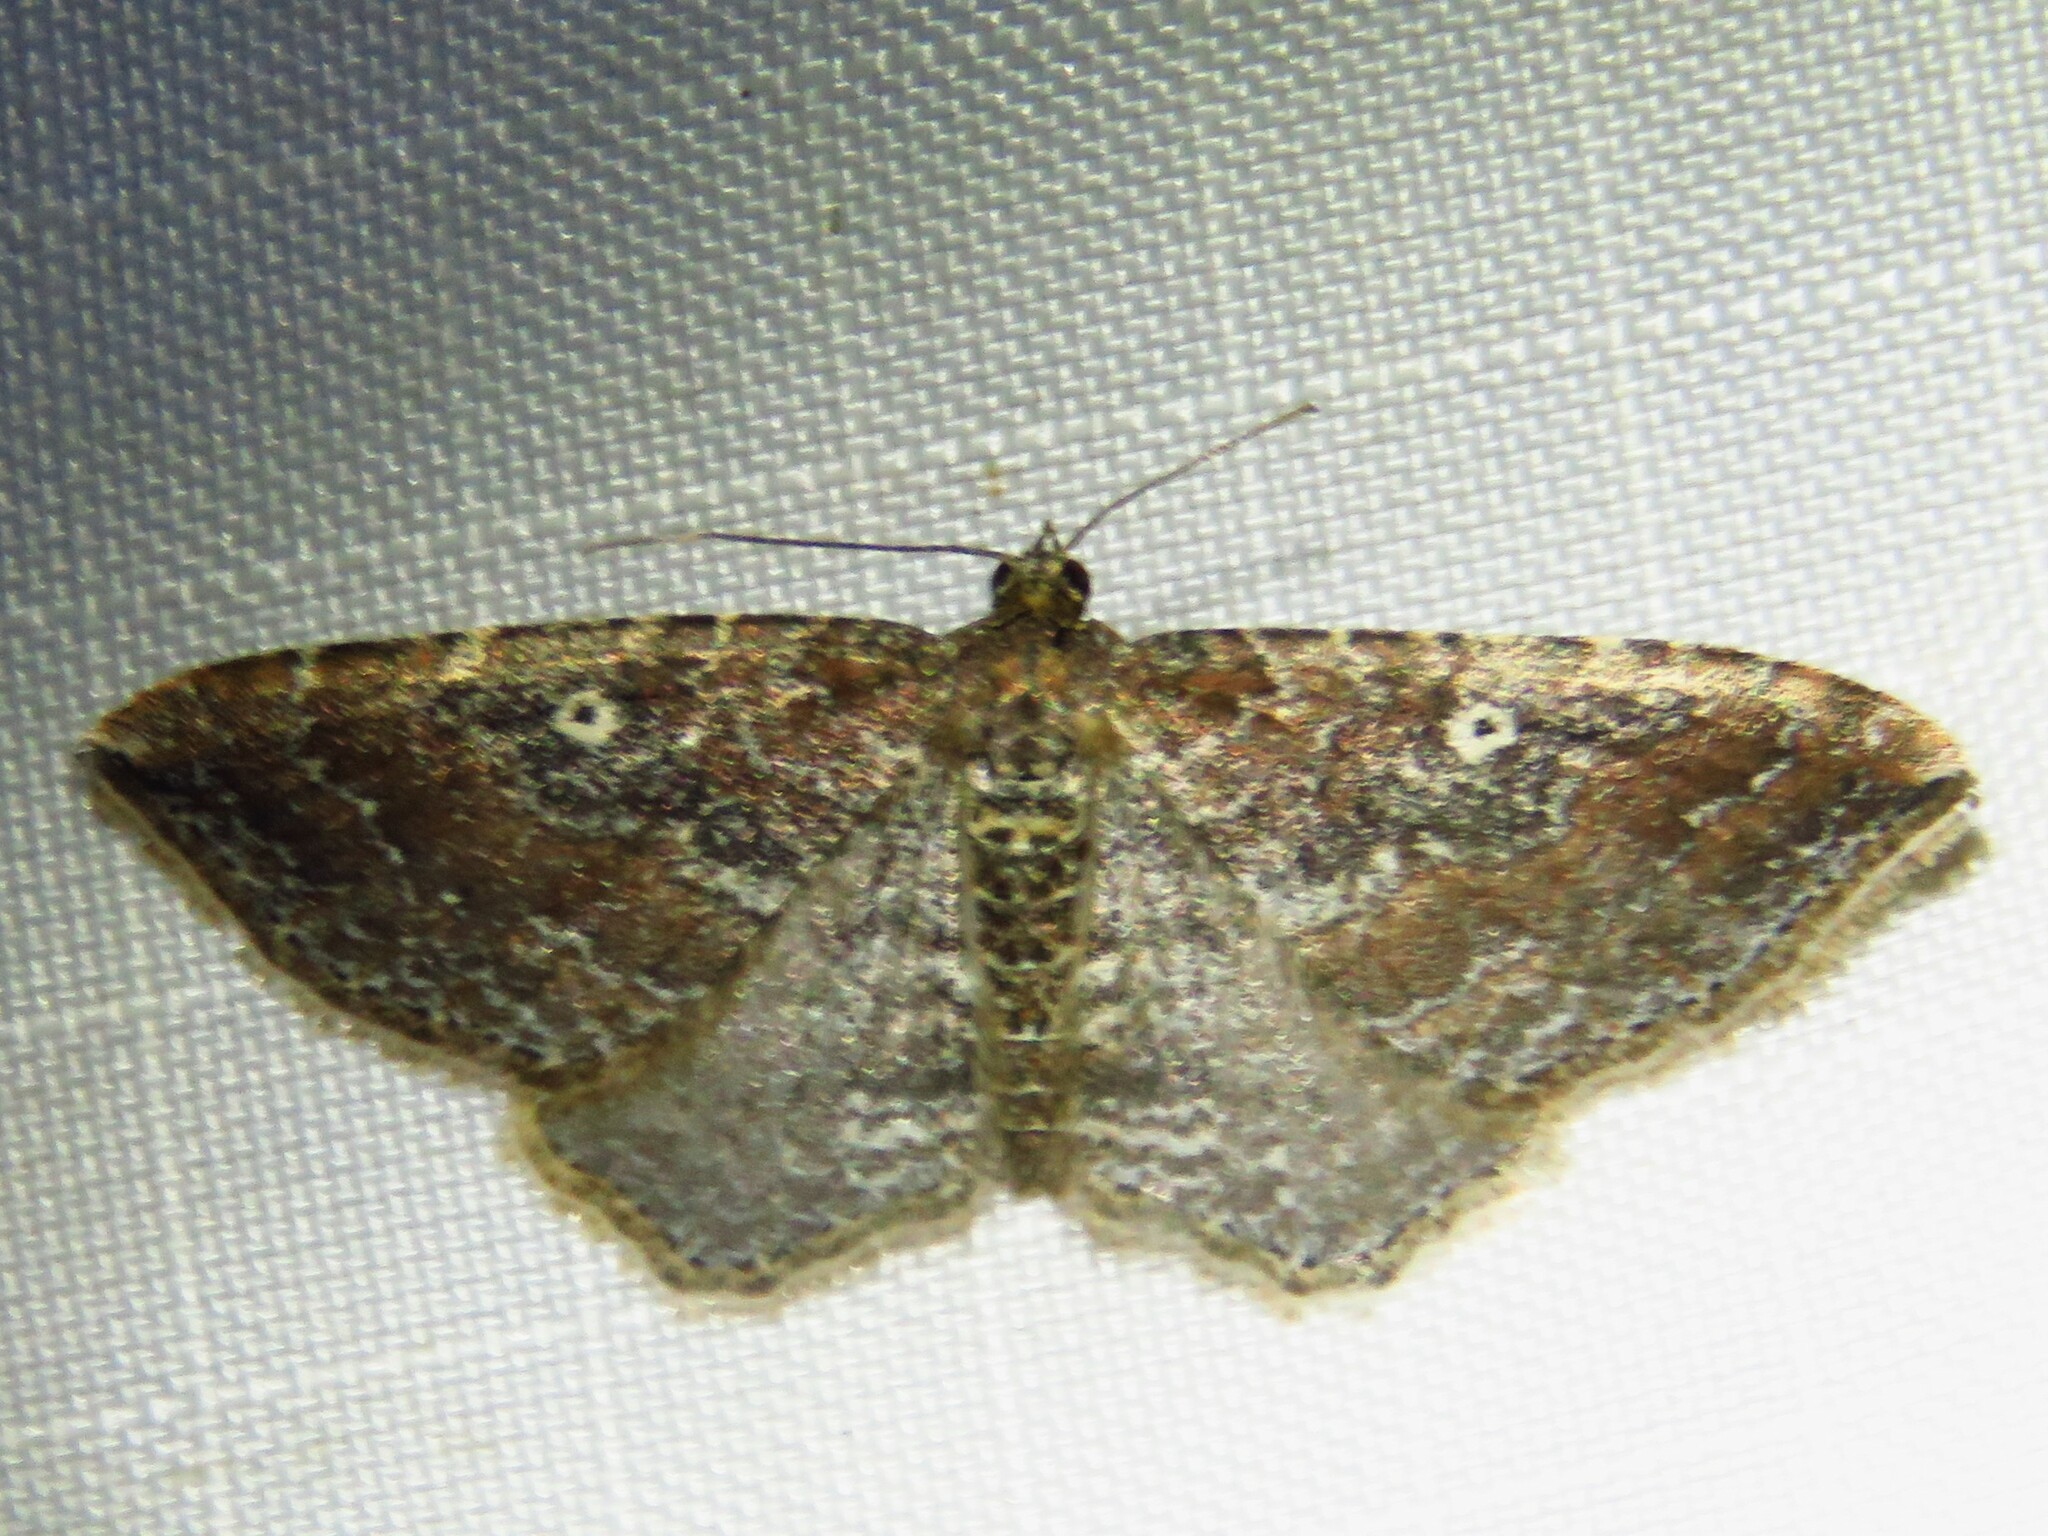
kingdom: Animalia
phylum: Arthropoda
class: Insecta
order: Lepidoptera
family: Geometridae
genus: Orthonama
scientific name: Orthonama obstipata
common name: The gem
